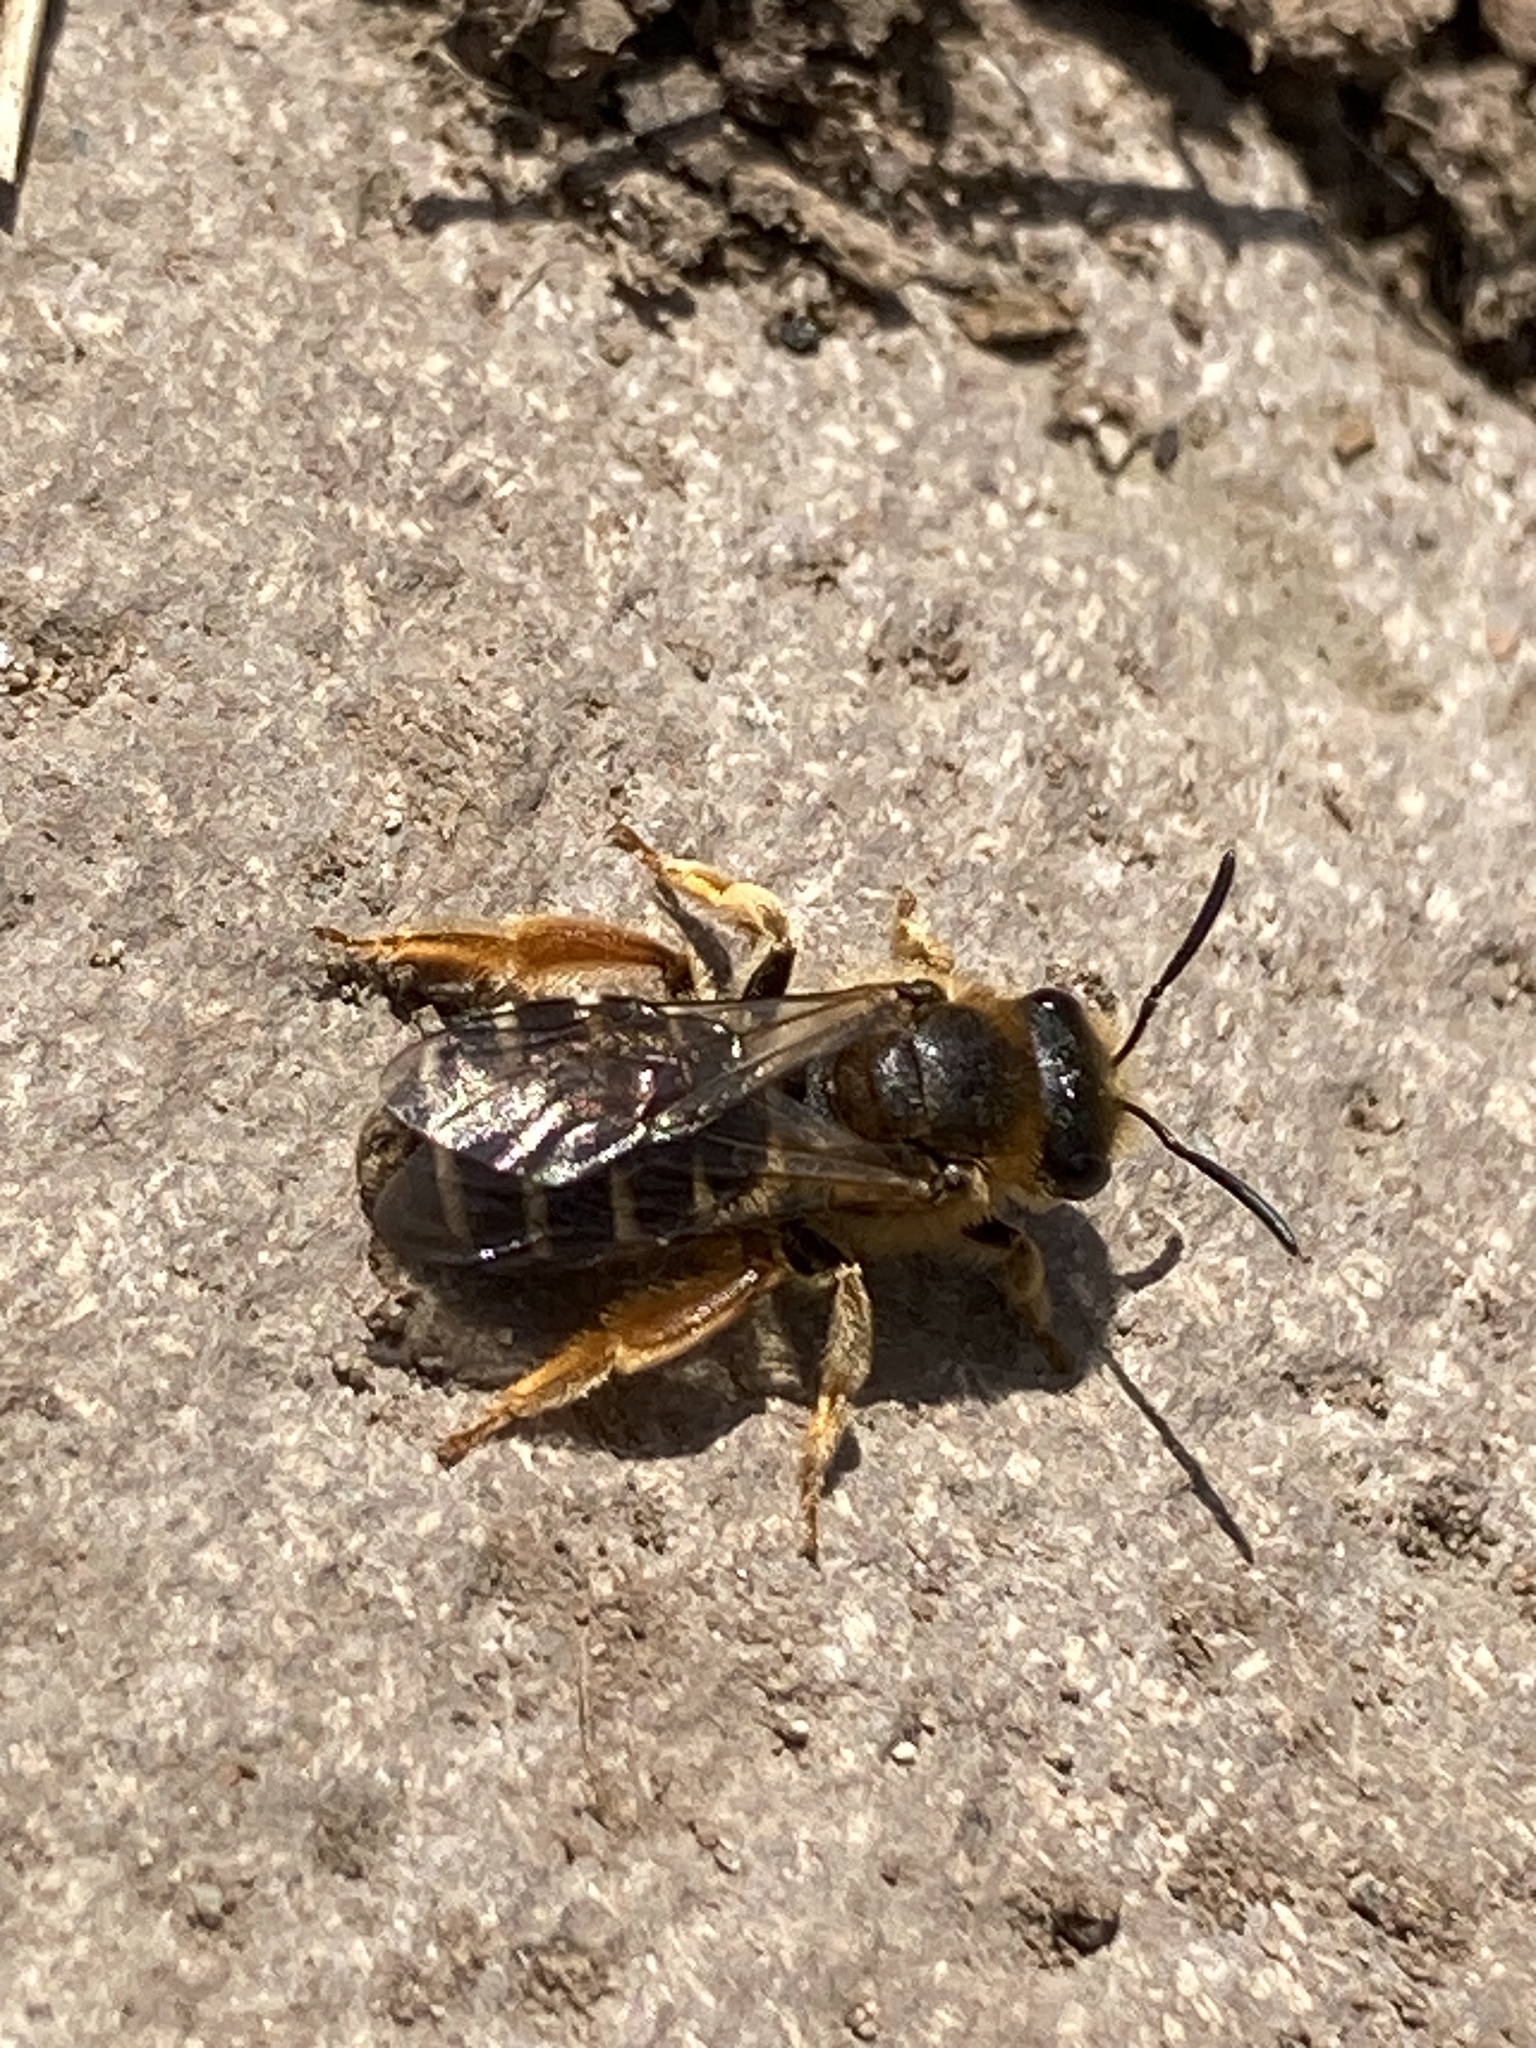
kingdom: Animalia
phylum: Arthropoda
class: Insecta
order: Hymenoptera
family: Halictidae
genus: Halictus
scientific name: Halictus rubicundus
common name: Orange-legged furrow bee
